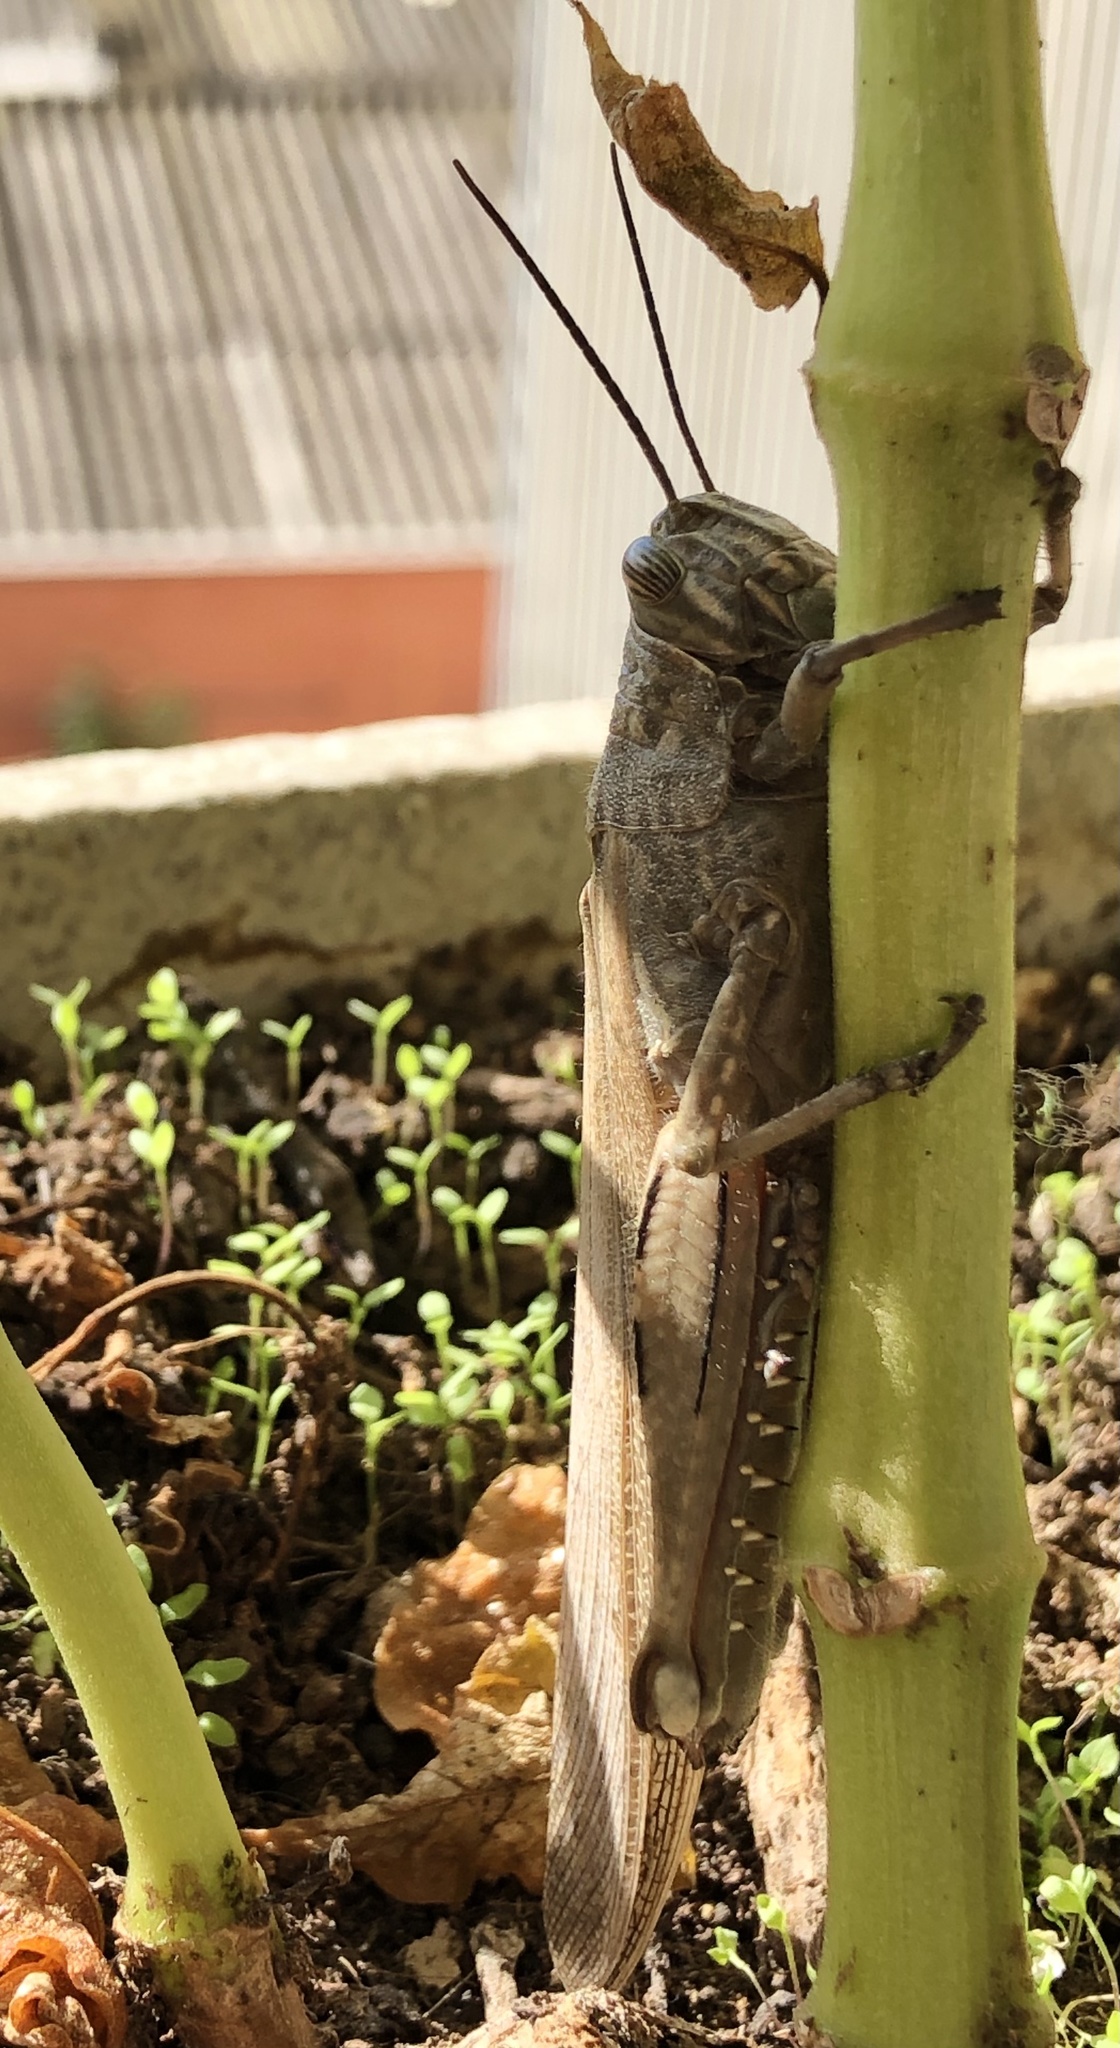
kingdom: Animalia
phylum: Arthropoda
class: Insecta
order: Orthoptera
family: Acrididae
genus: Anacridium
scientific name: Anacridium aegyptium
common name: Egyptian grasshopper
